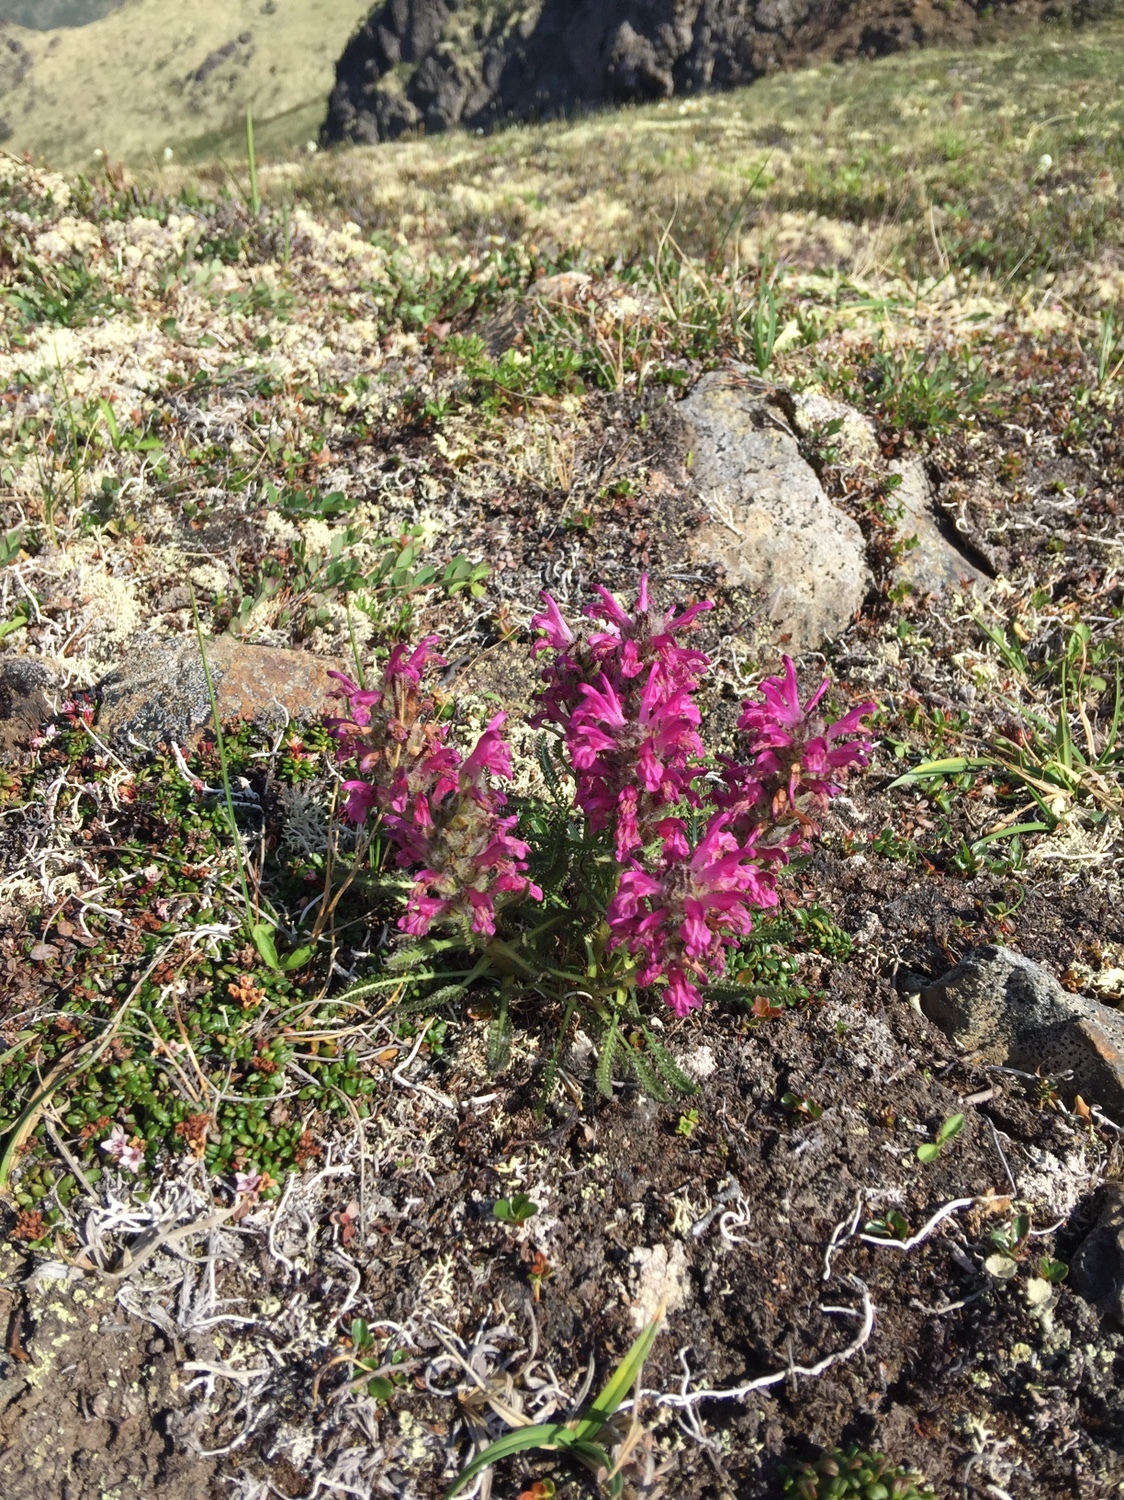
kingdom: Plantae
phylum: Tracheophyta
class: Magnoliopsida
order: Lamiales
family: Orobanchaceae
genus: Pedicularis
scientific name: Pedicularis lanata
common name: Woolly lousewort
